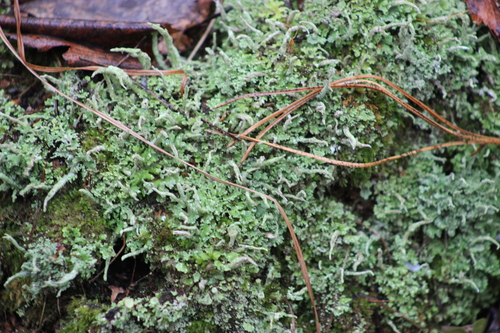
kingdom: Fungi
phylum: Ascomycota
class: Lecanoromycetes
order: Lecanorales
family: Cladoniaceae
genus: Cladonia
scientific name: Cladonia coniocraea
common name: Common powderhorn
